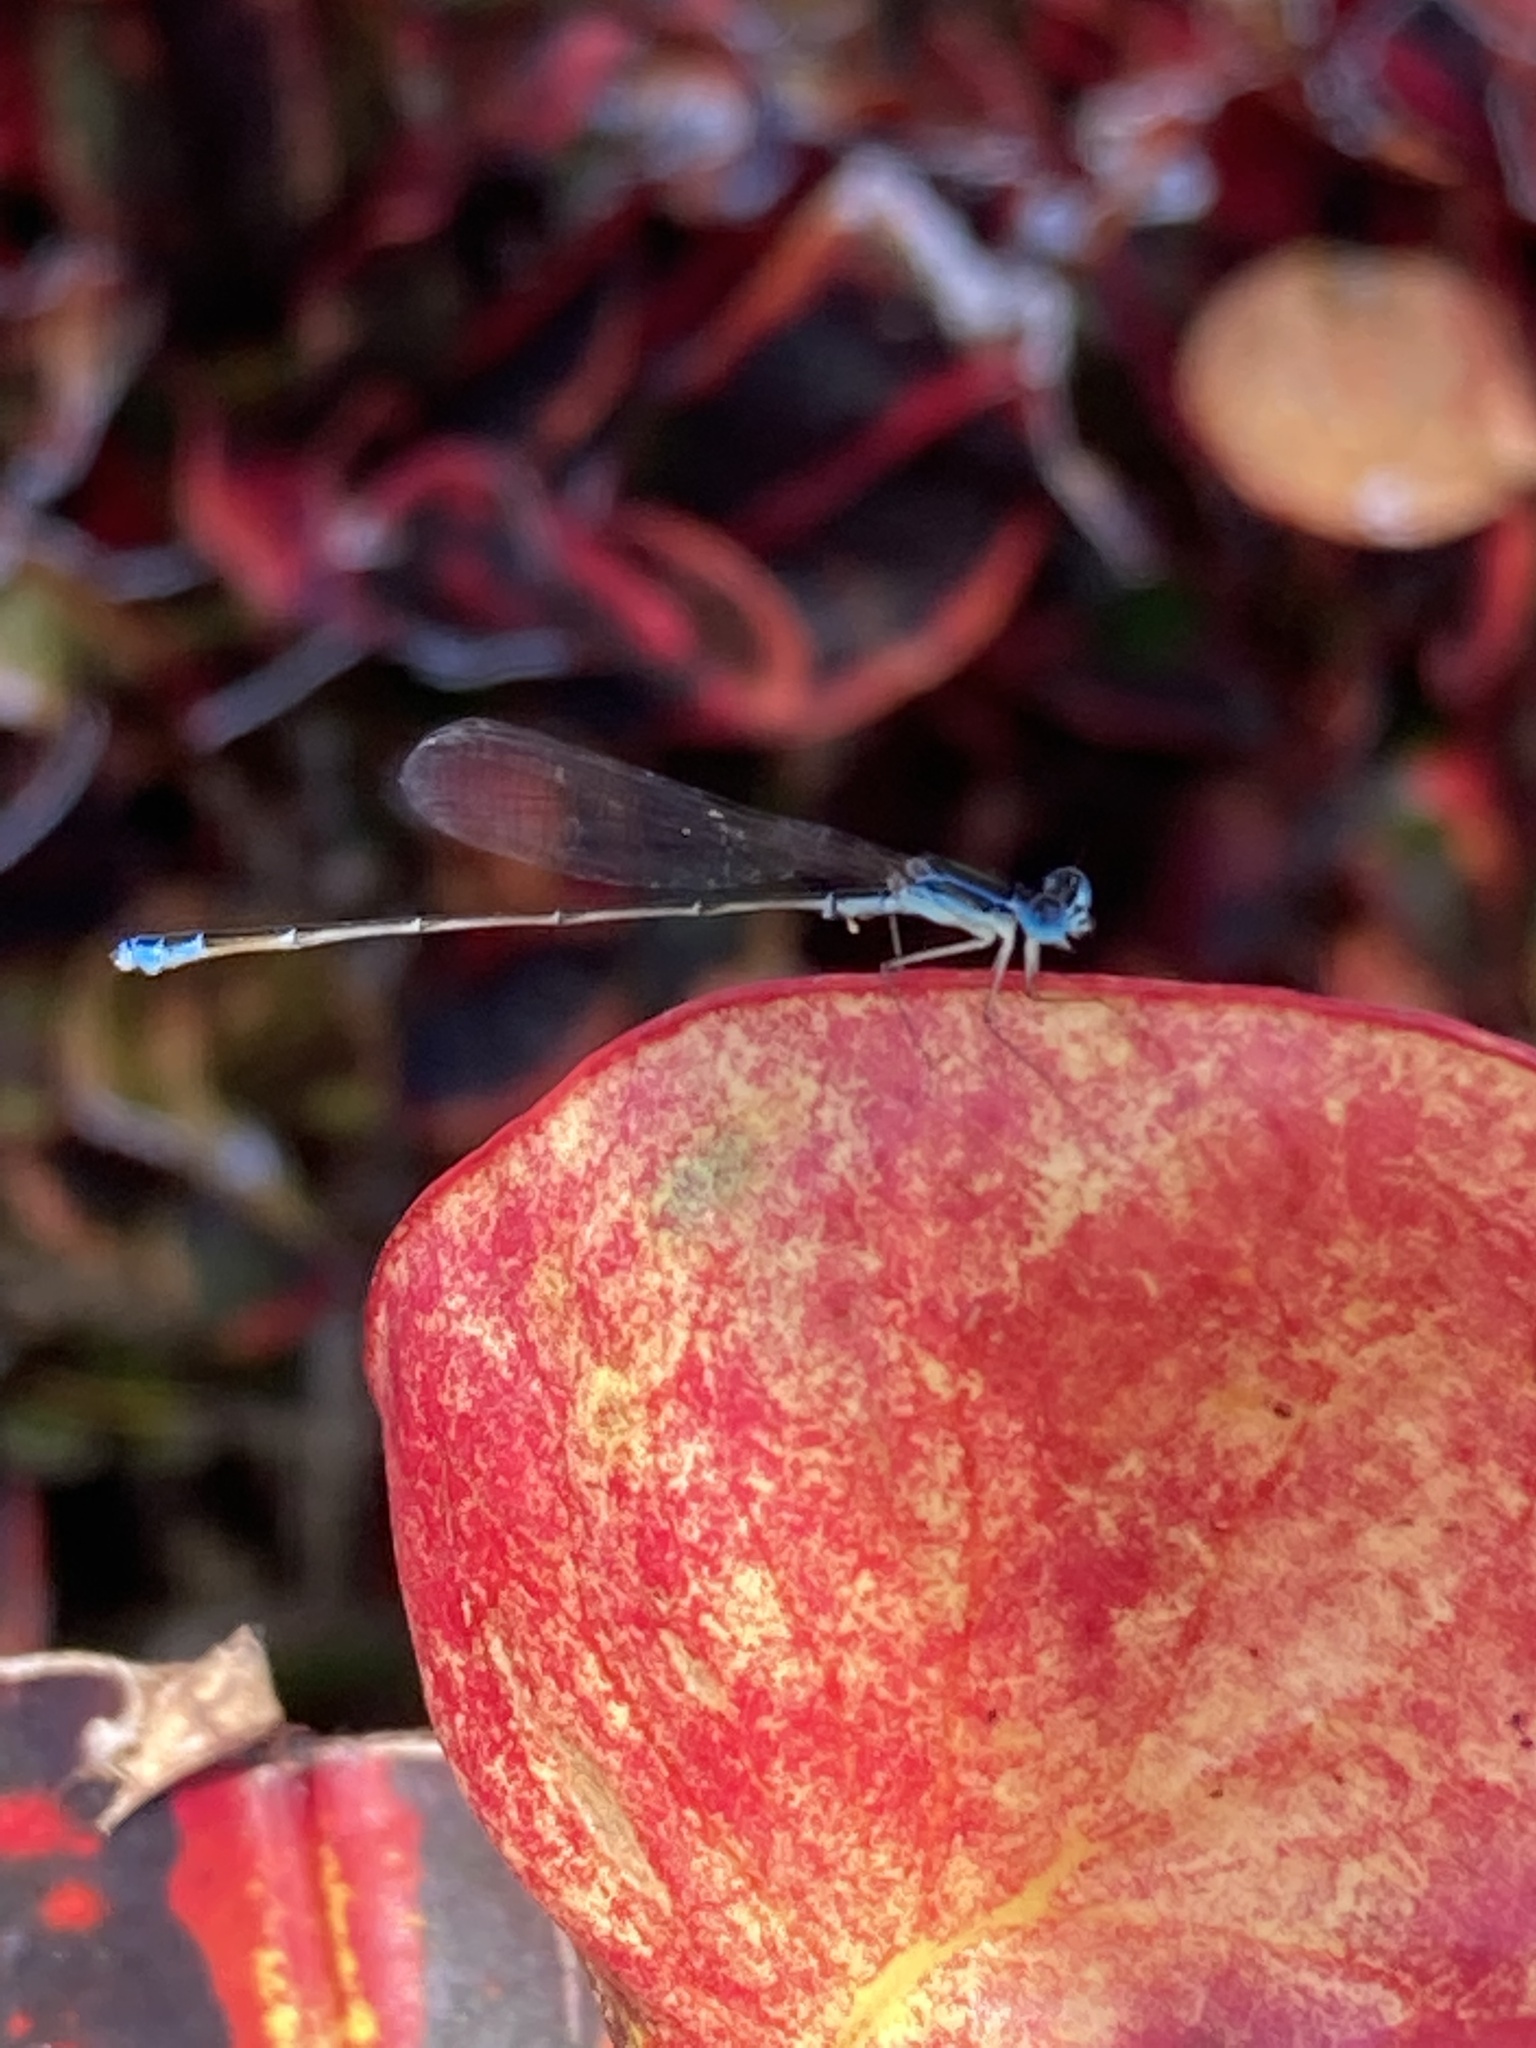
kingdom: Animalia
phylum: Arthropoda
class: Insecta
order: Odonata
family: Coenagrionidae
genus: Nehalennia
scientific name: Nehalennia pallidula
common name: Everglades sprite
